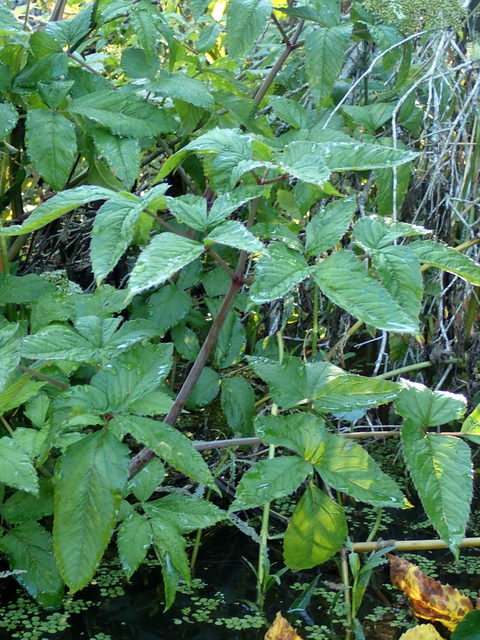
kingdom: Plantae
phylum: Tracheophyta
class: Magnoliopsida
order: Apiales
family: Apiaceae
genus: Cicuta
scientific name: Cicuta maculata
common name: Spotted cowbane
